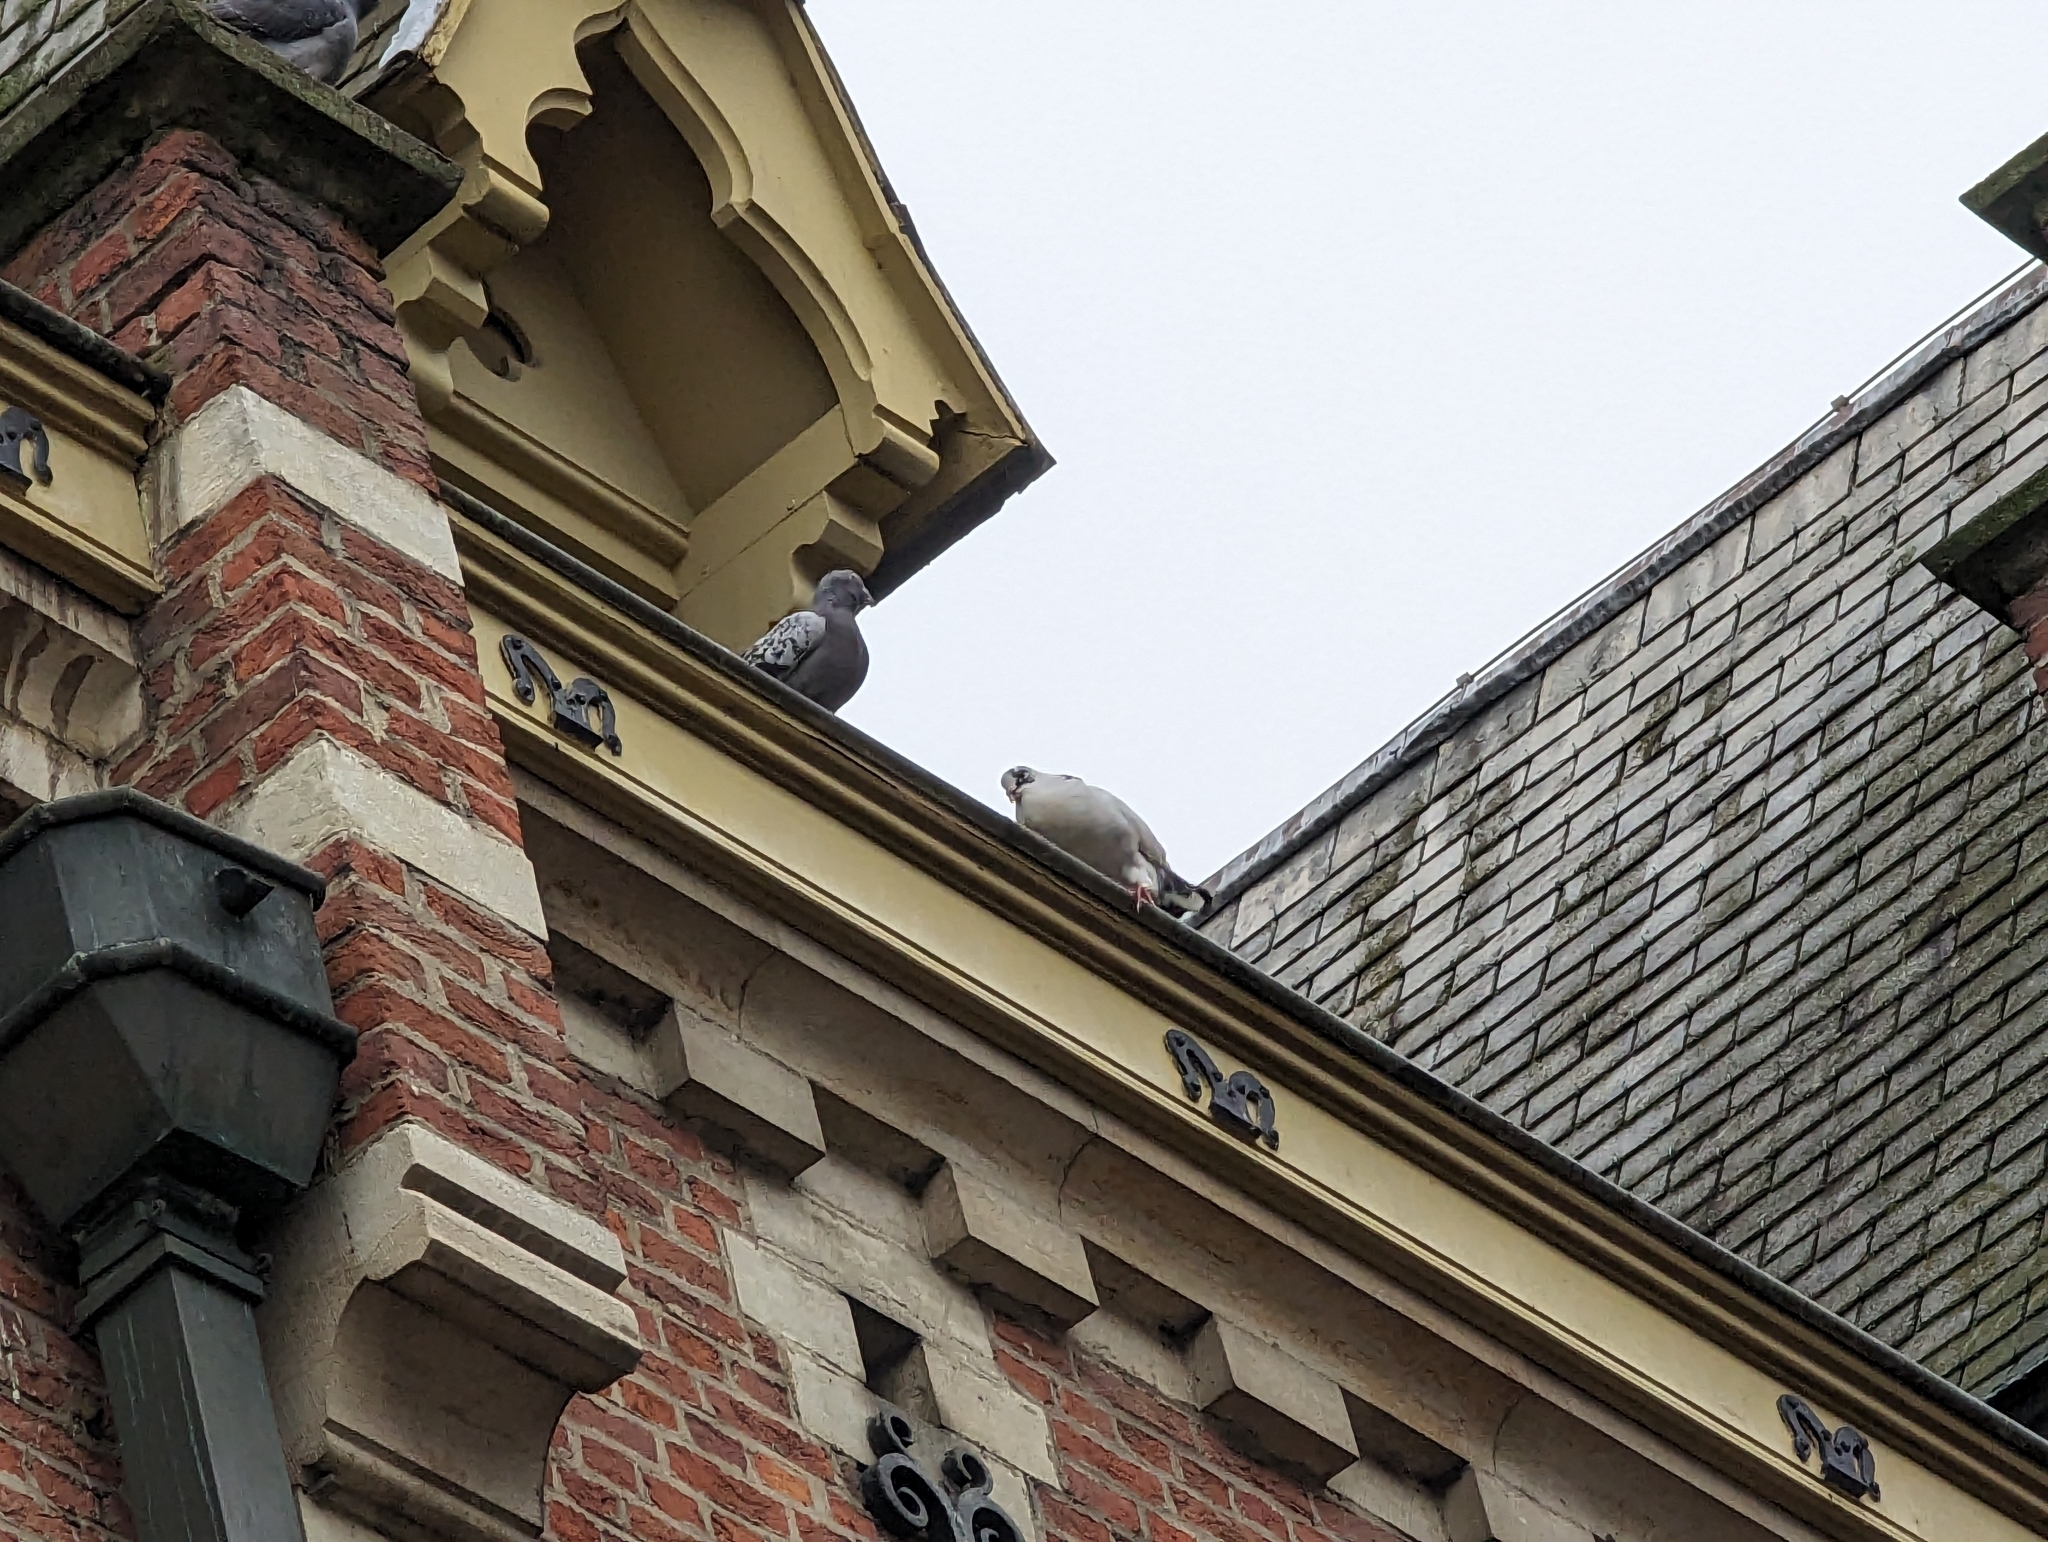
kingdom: Animalia
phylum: Chordata
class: Aves
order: Columbiformes
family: Columbidae
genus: Columba
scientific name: Columba livia
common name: Rock pigeon
